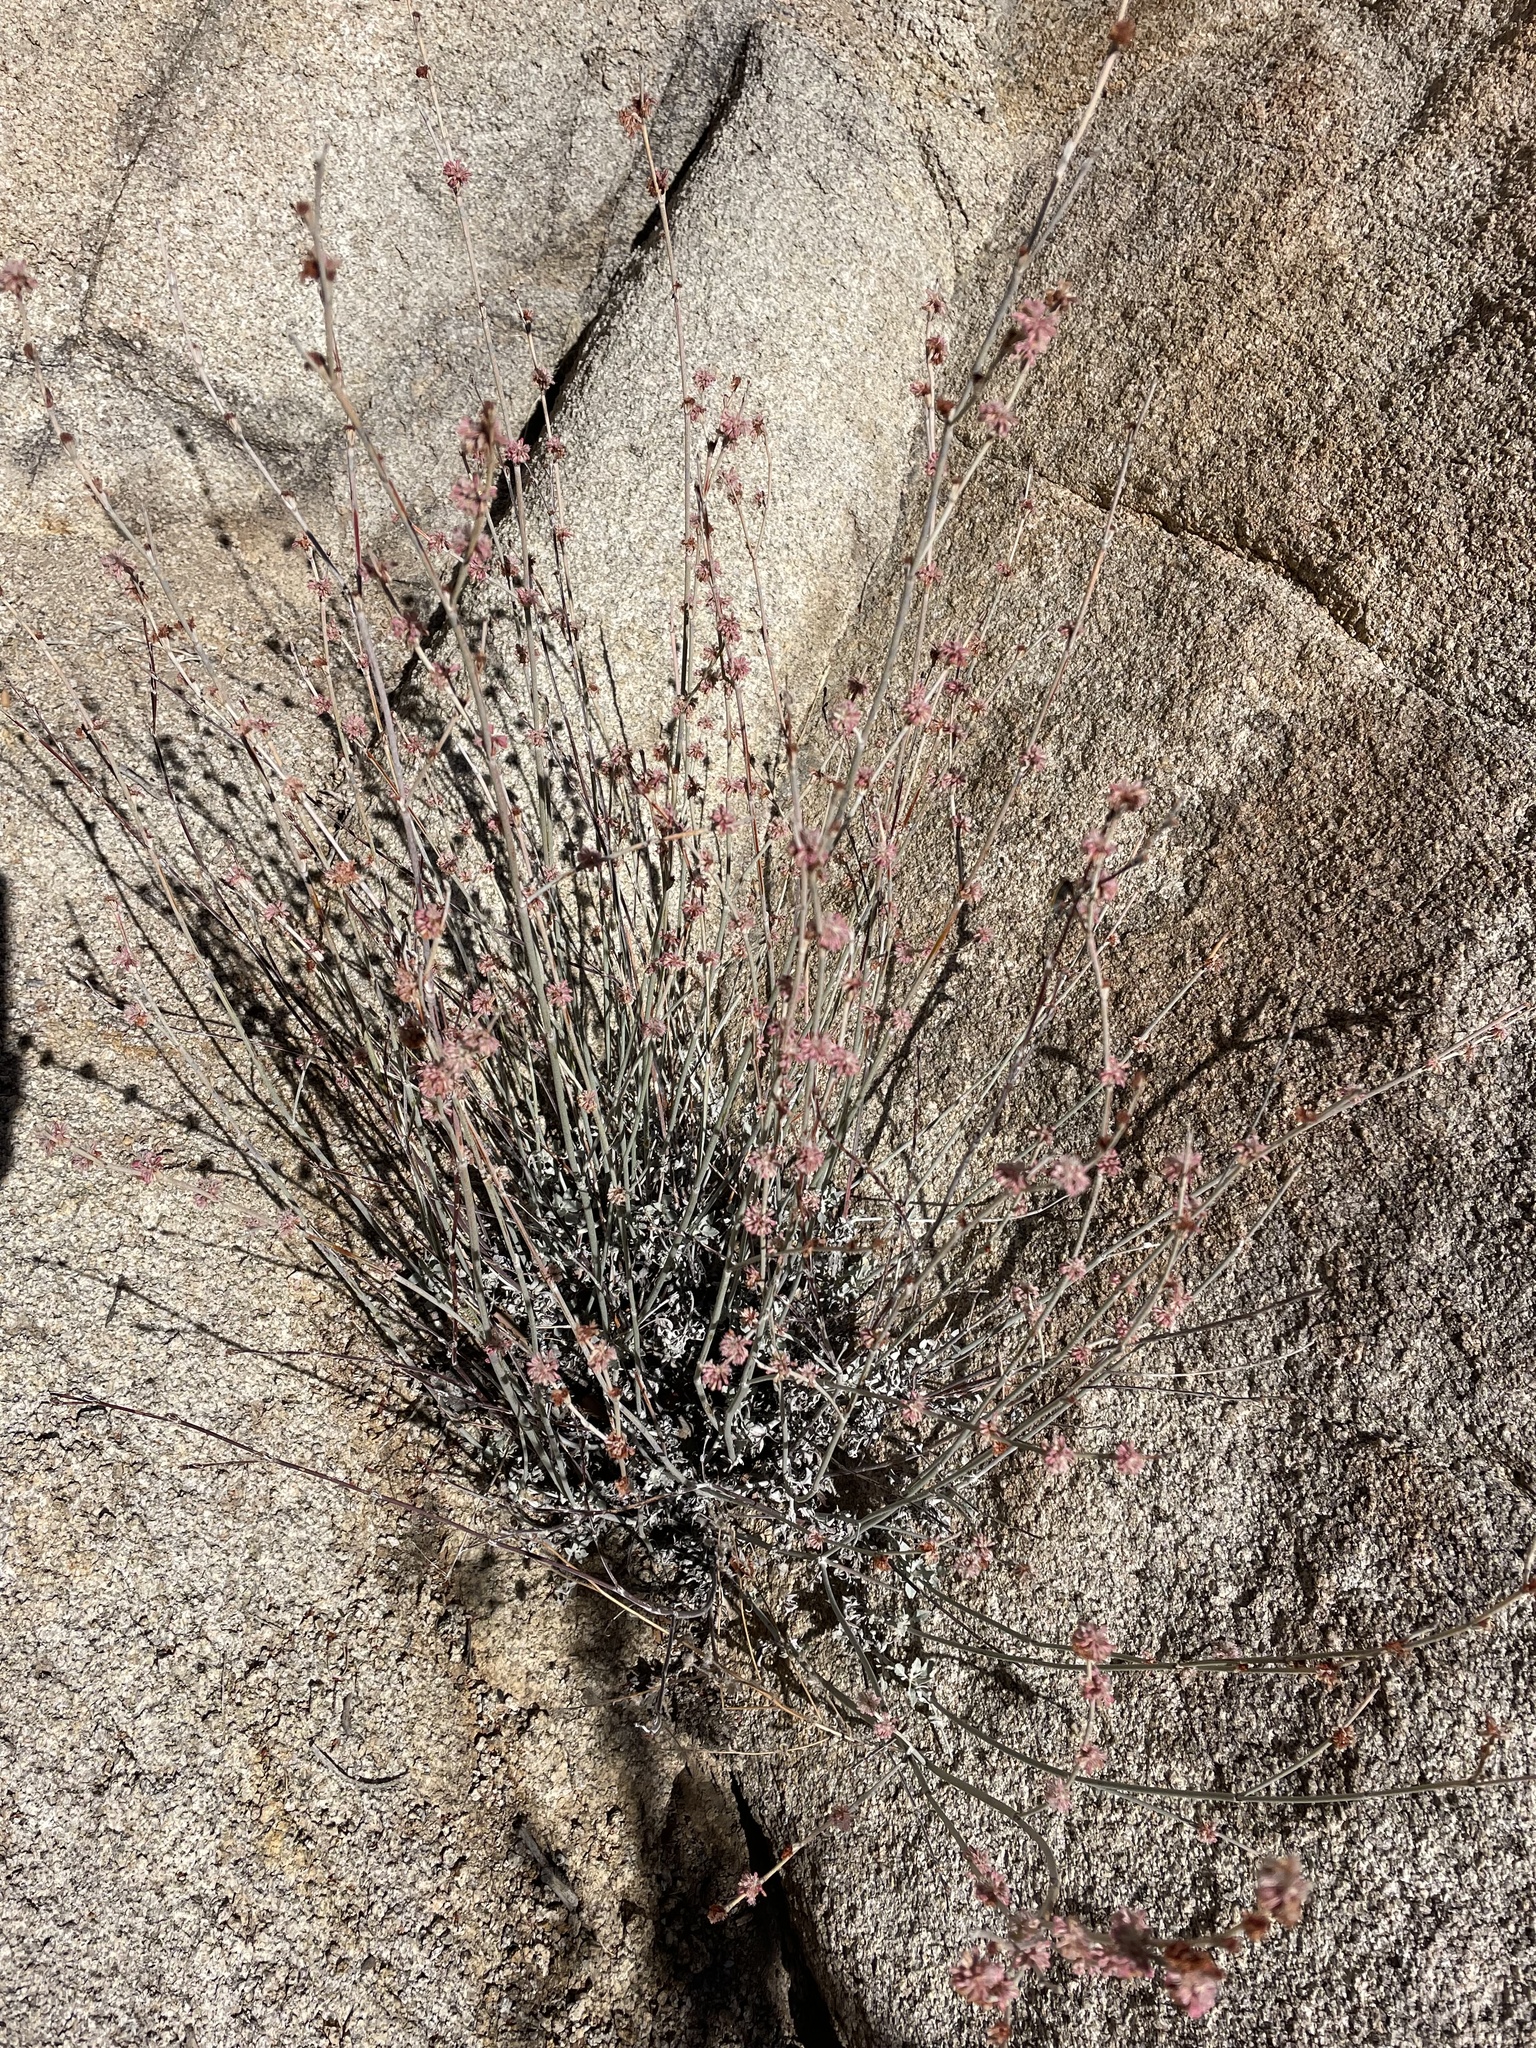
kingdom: Plantae
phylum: Tracheophyta
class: Magnoliopsida
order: Caryophyllales
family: Polygonaceae
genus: Eriogonum
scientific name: Eriogonum elongatum
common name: Long-stem wild buckwheat
